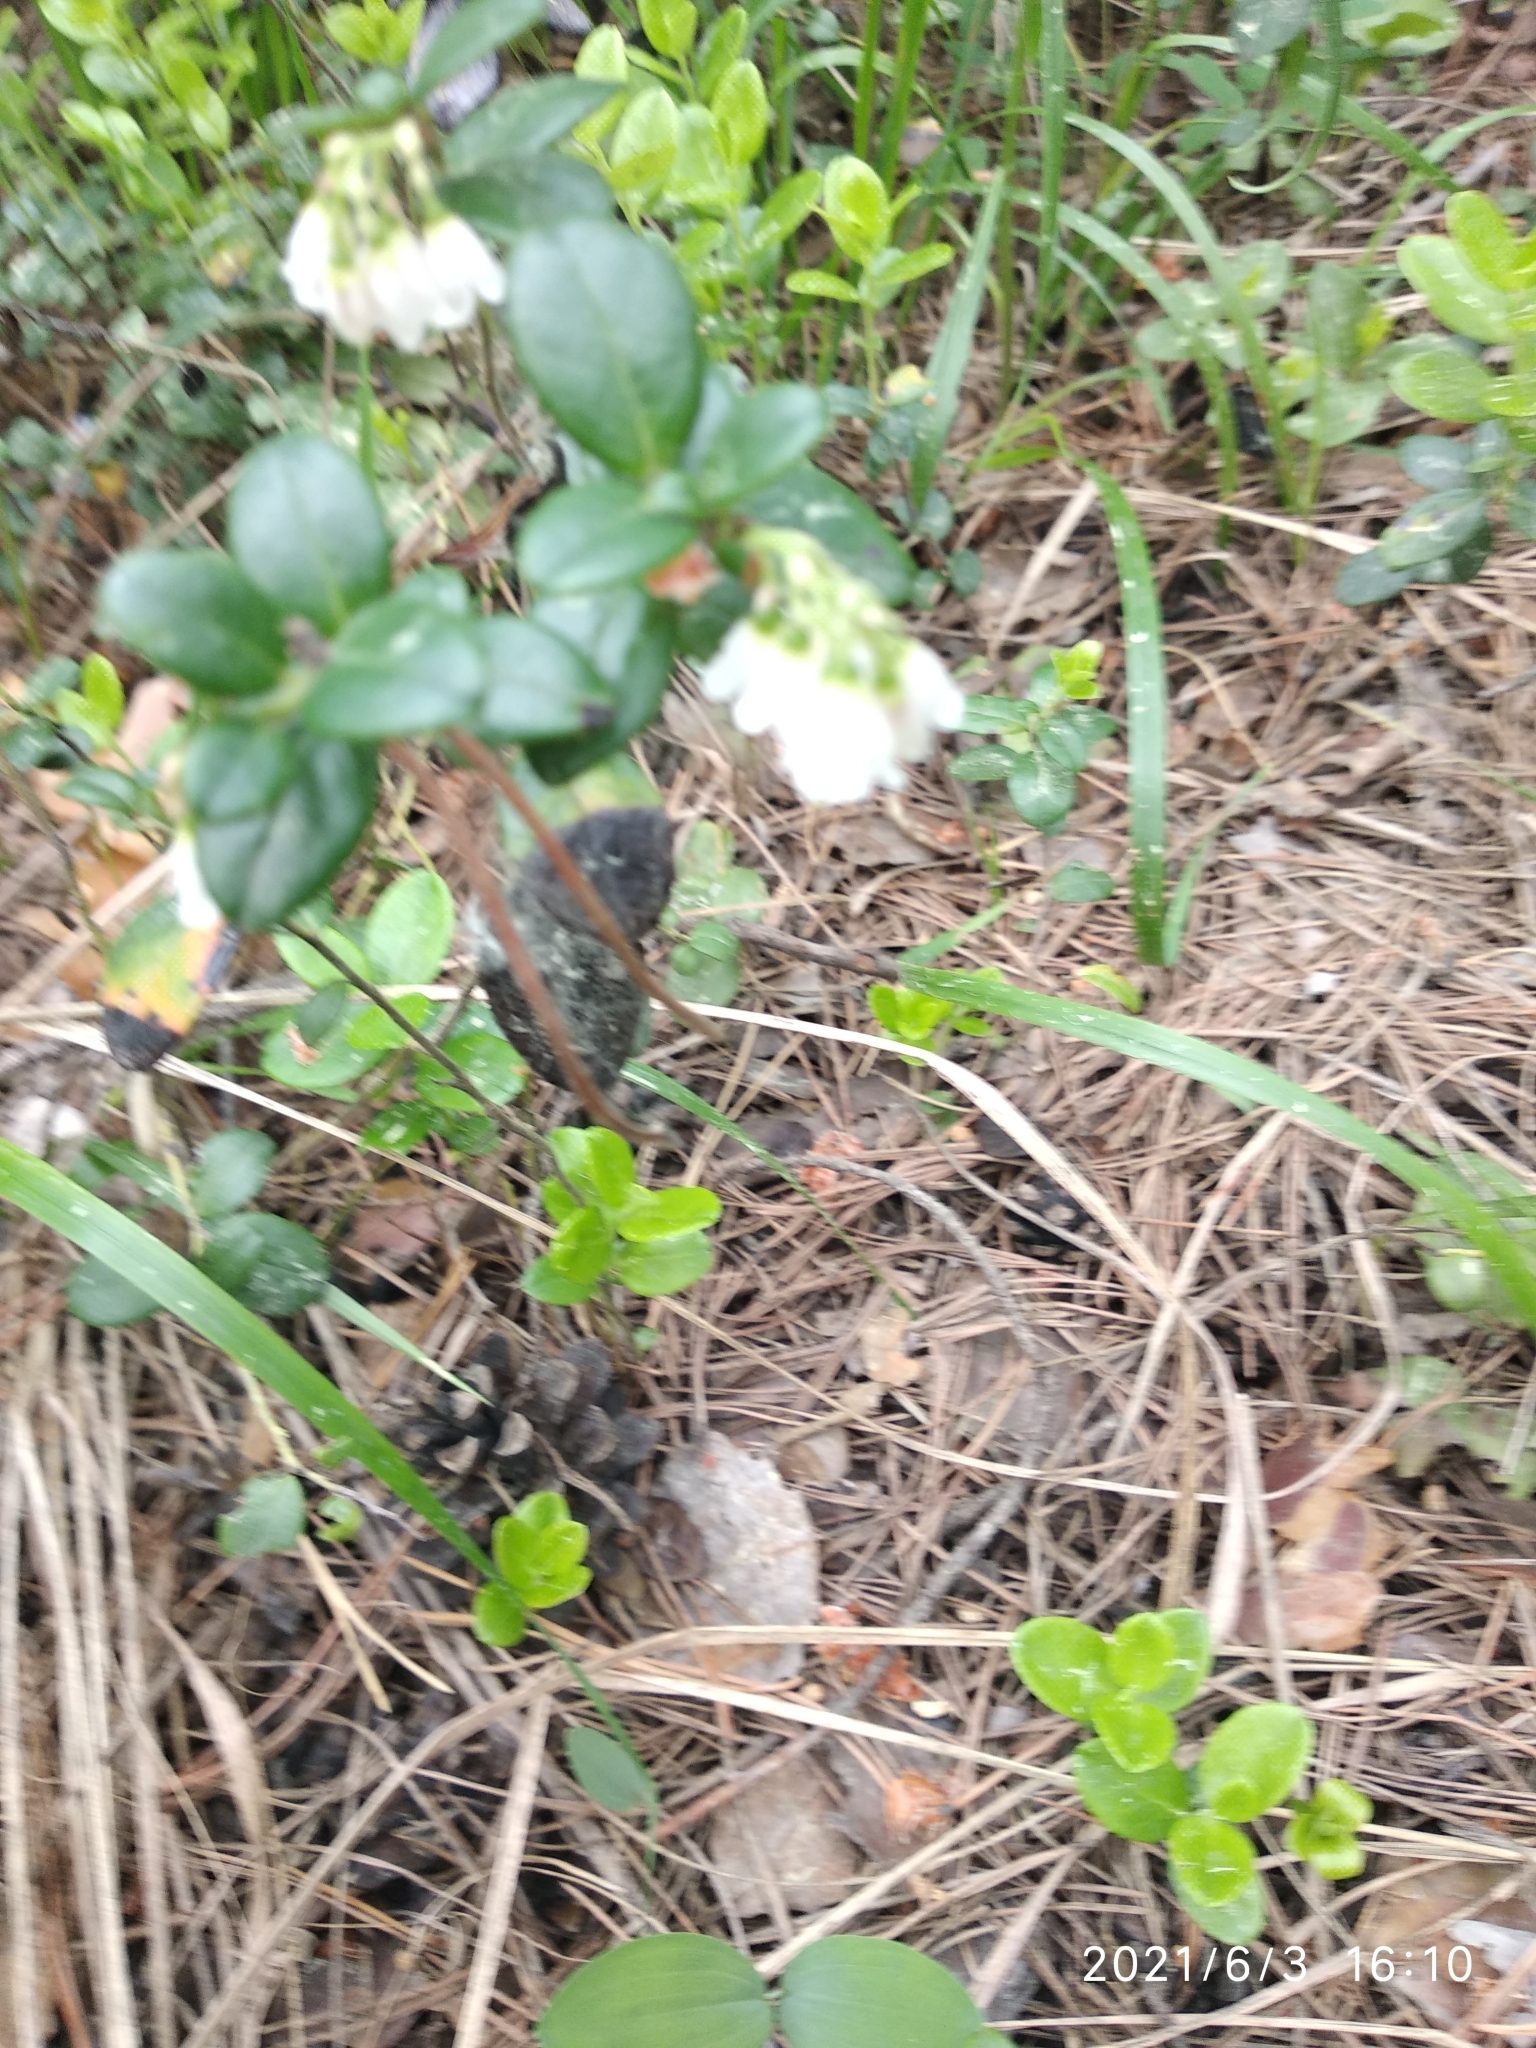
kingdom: Plantae
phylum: Tracheophyta
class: Magnoliopsida
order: Ericales
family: Ericaceae
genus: Vaccinium
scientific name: Vaccinium vitis-idaea
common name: Cowberry
